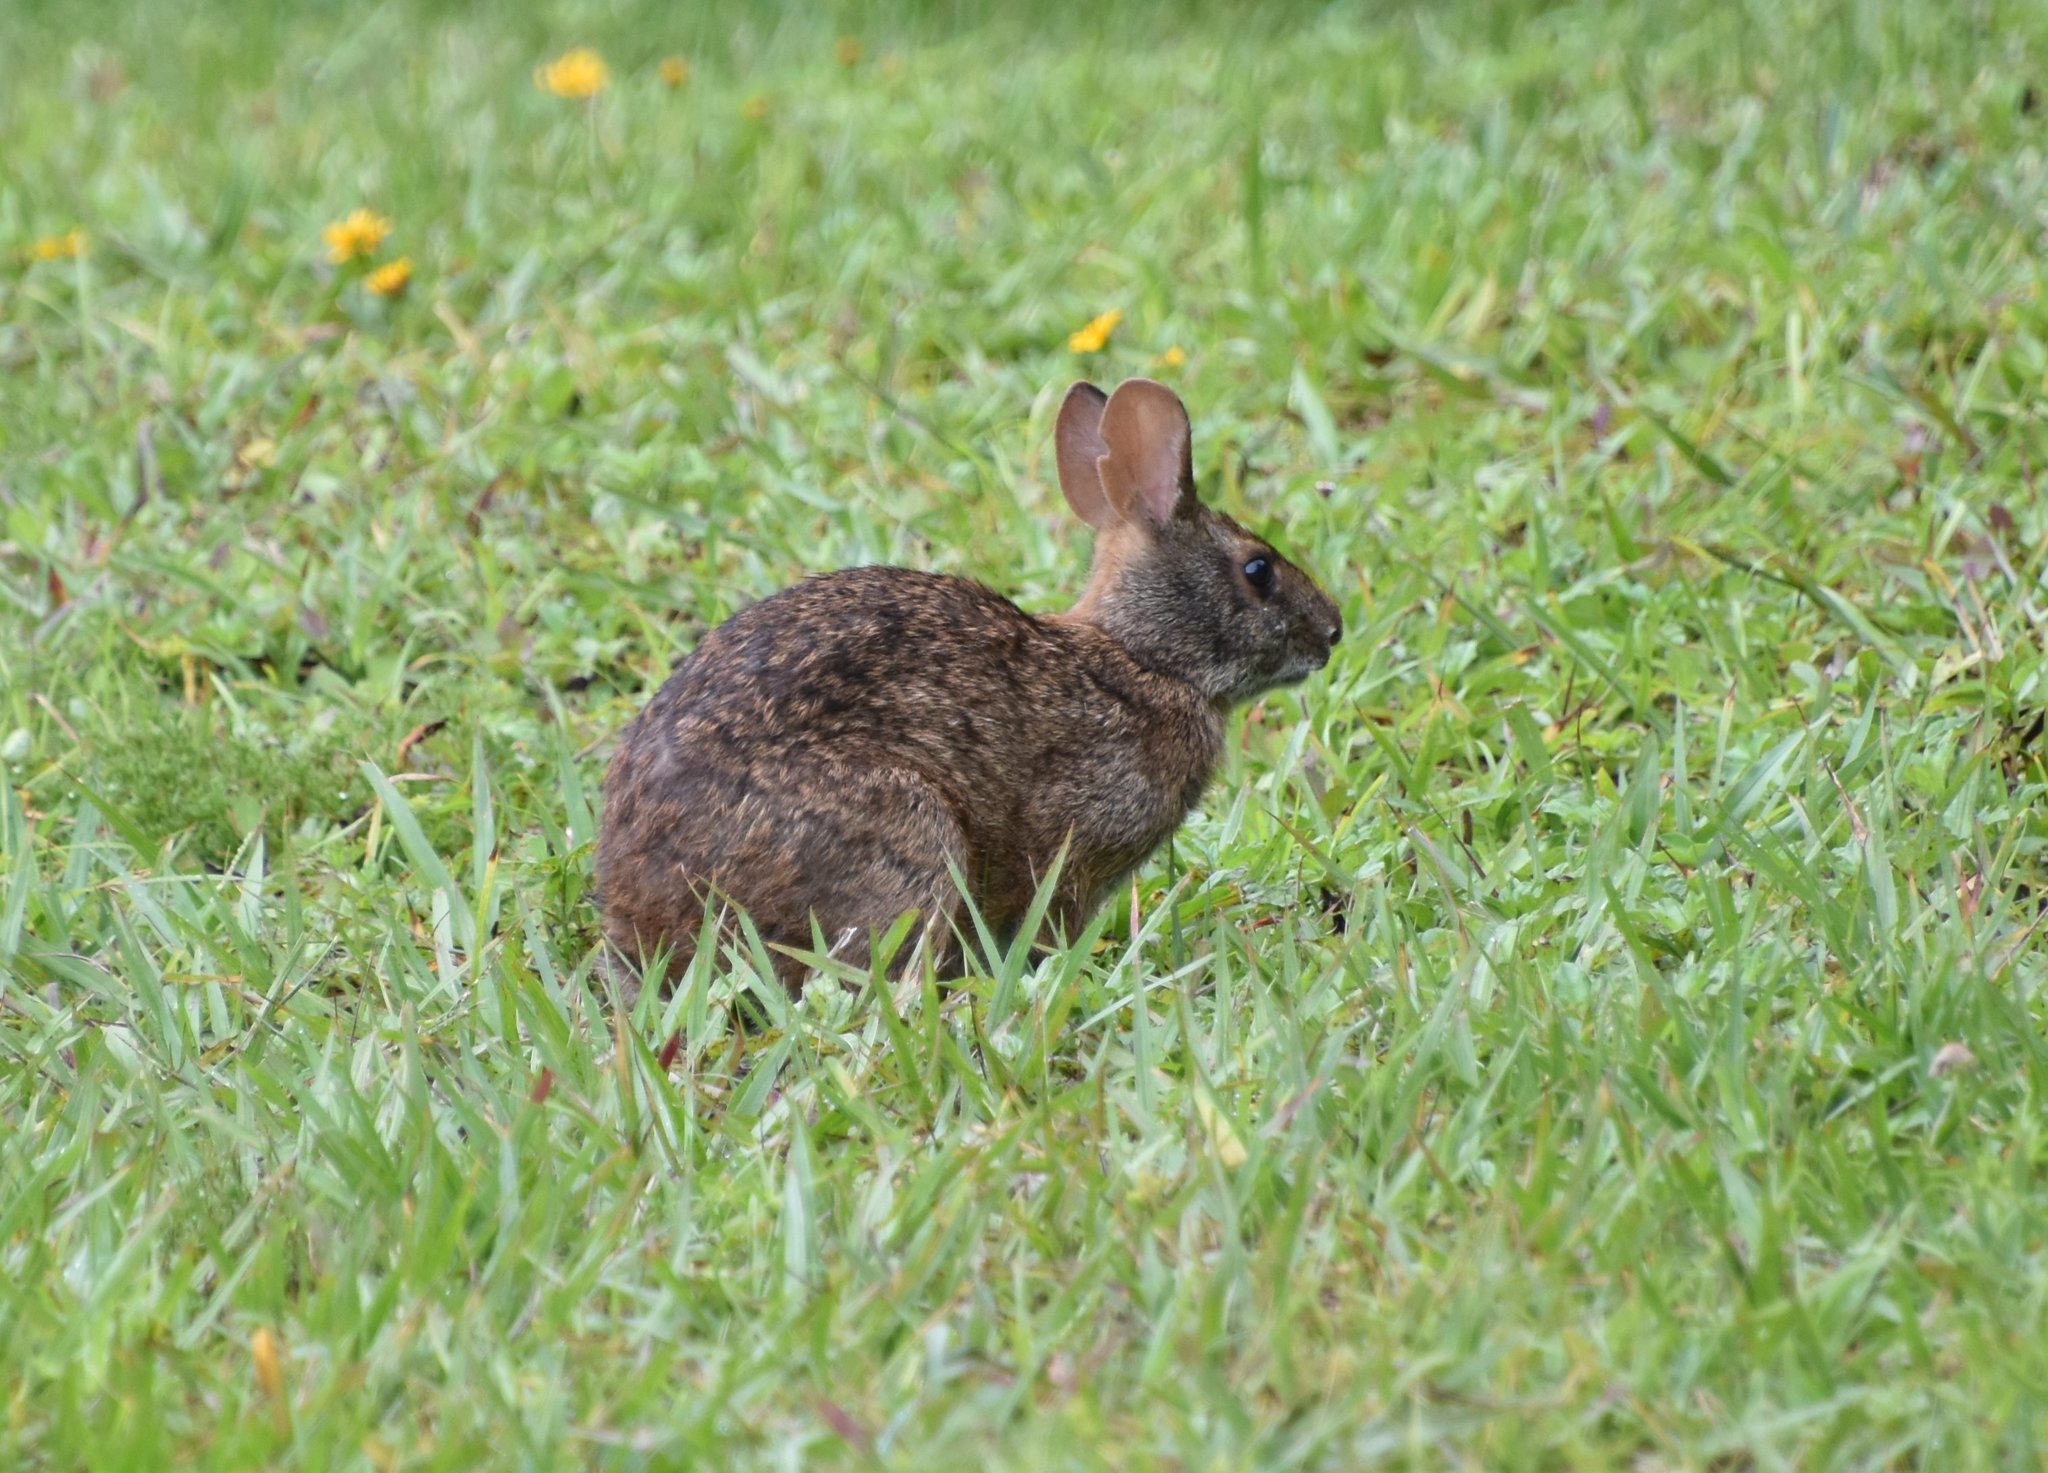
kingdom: Animalia
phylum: Chordata
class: Mammalia
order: Lagomorpha
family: Leporidae
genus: Sylvilagus
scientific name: Sylvilagus palustris
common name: Marsh rabbit
